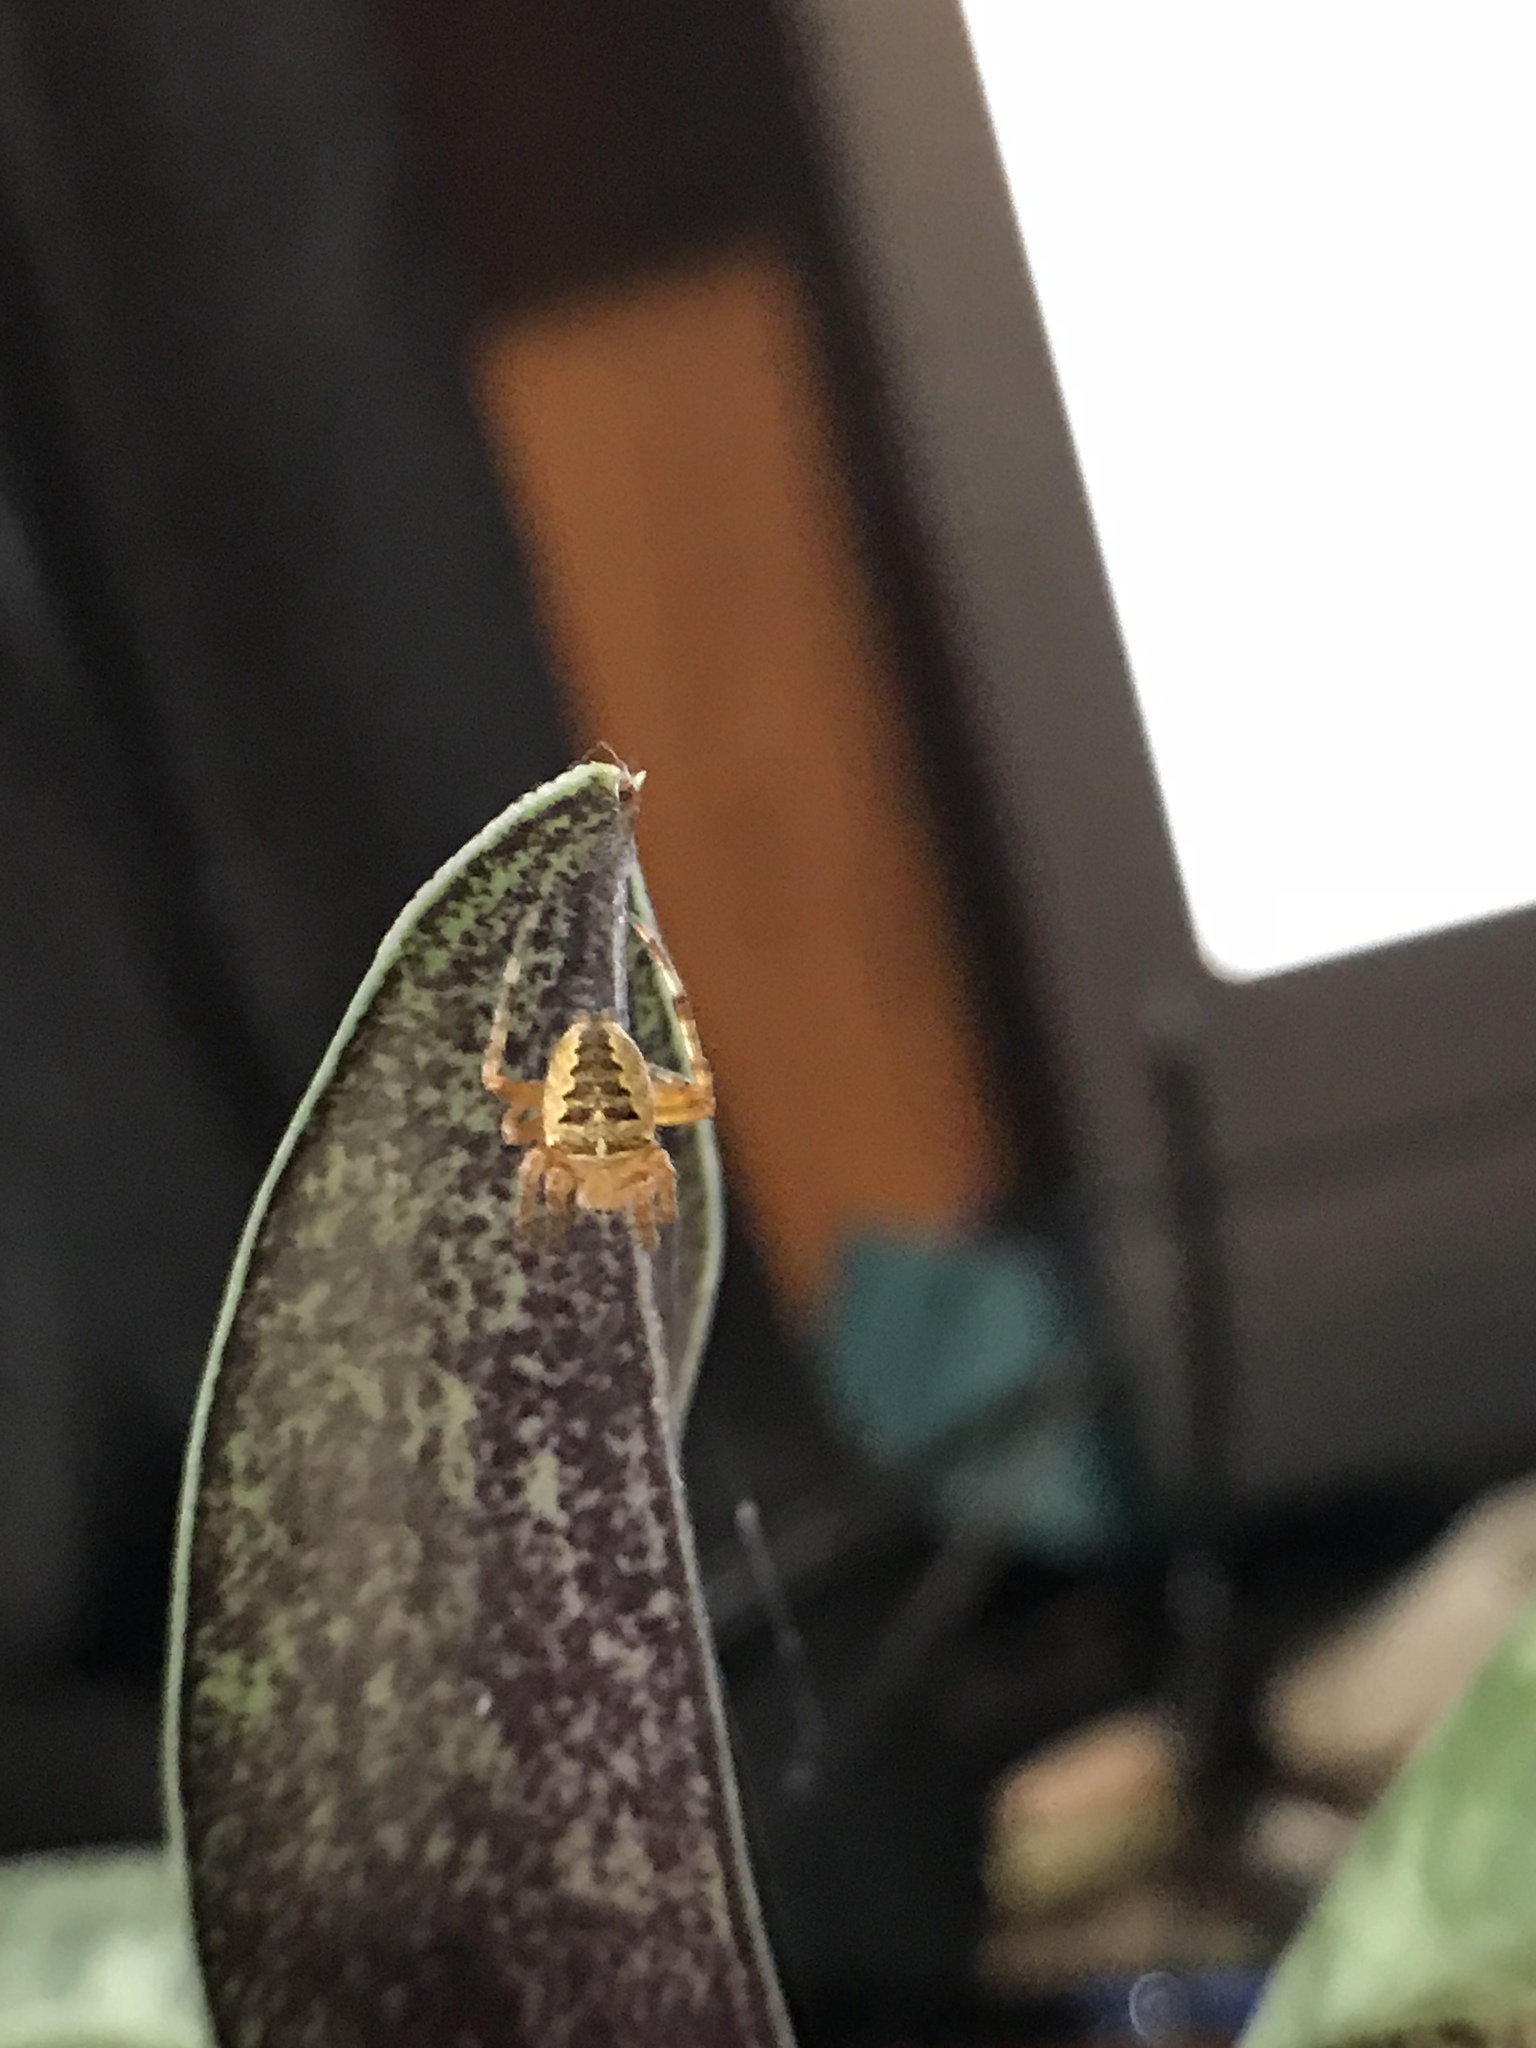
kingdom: Animalia
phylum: Arthropoda
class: Arachnida
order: Araneae
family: Araneidae
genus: Araneus
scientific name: Araneus diadematus
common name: Cross orbweaver
